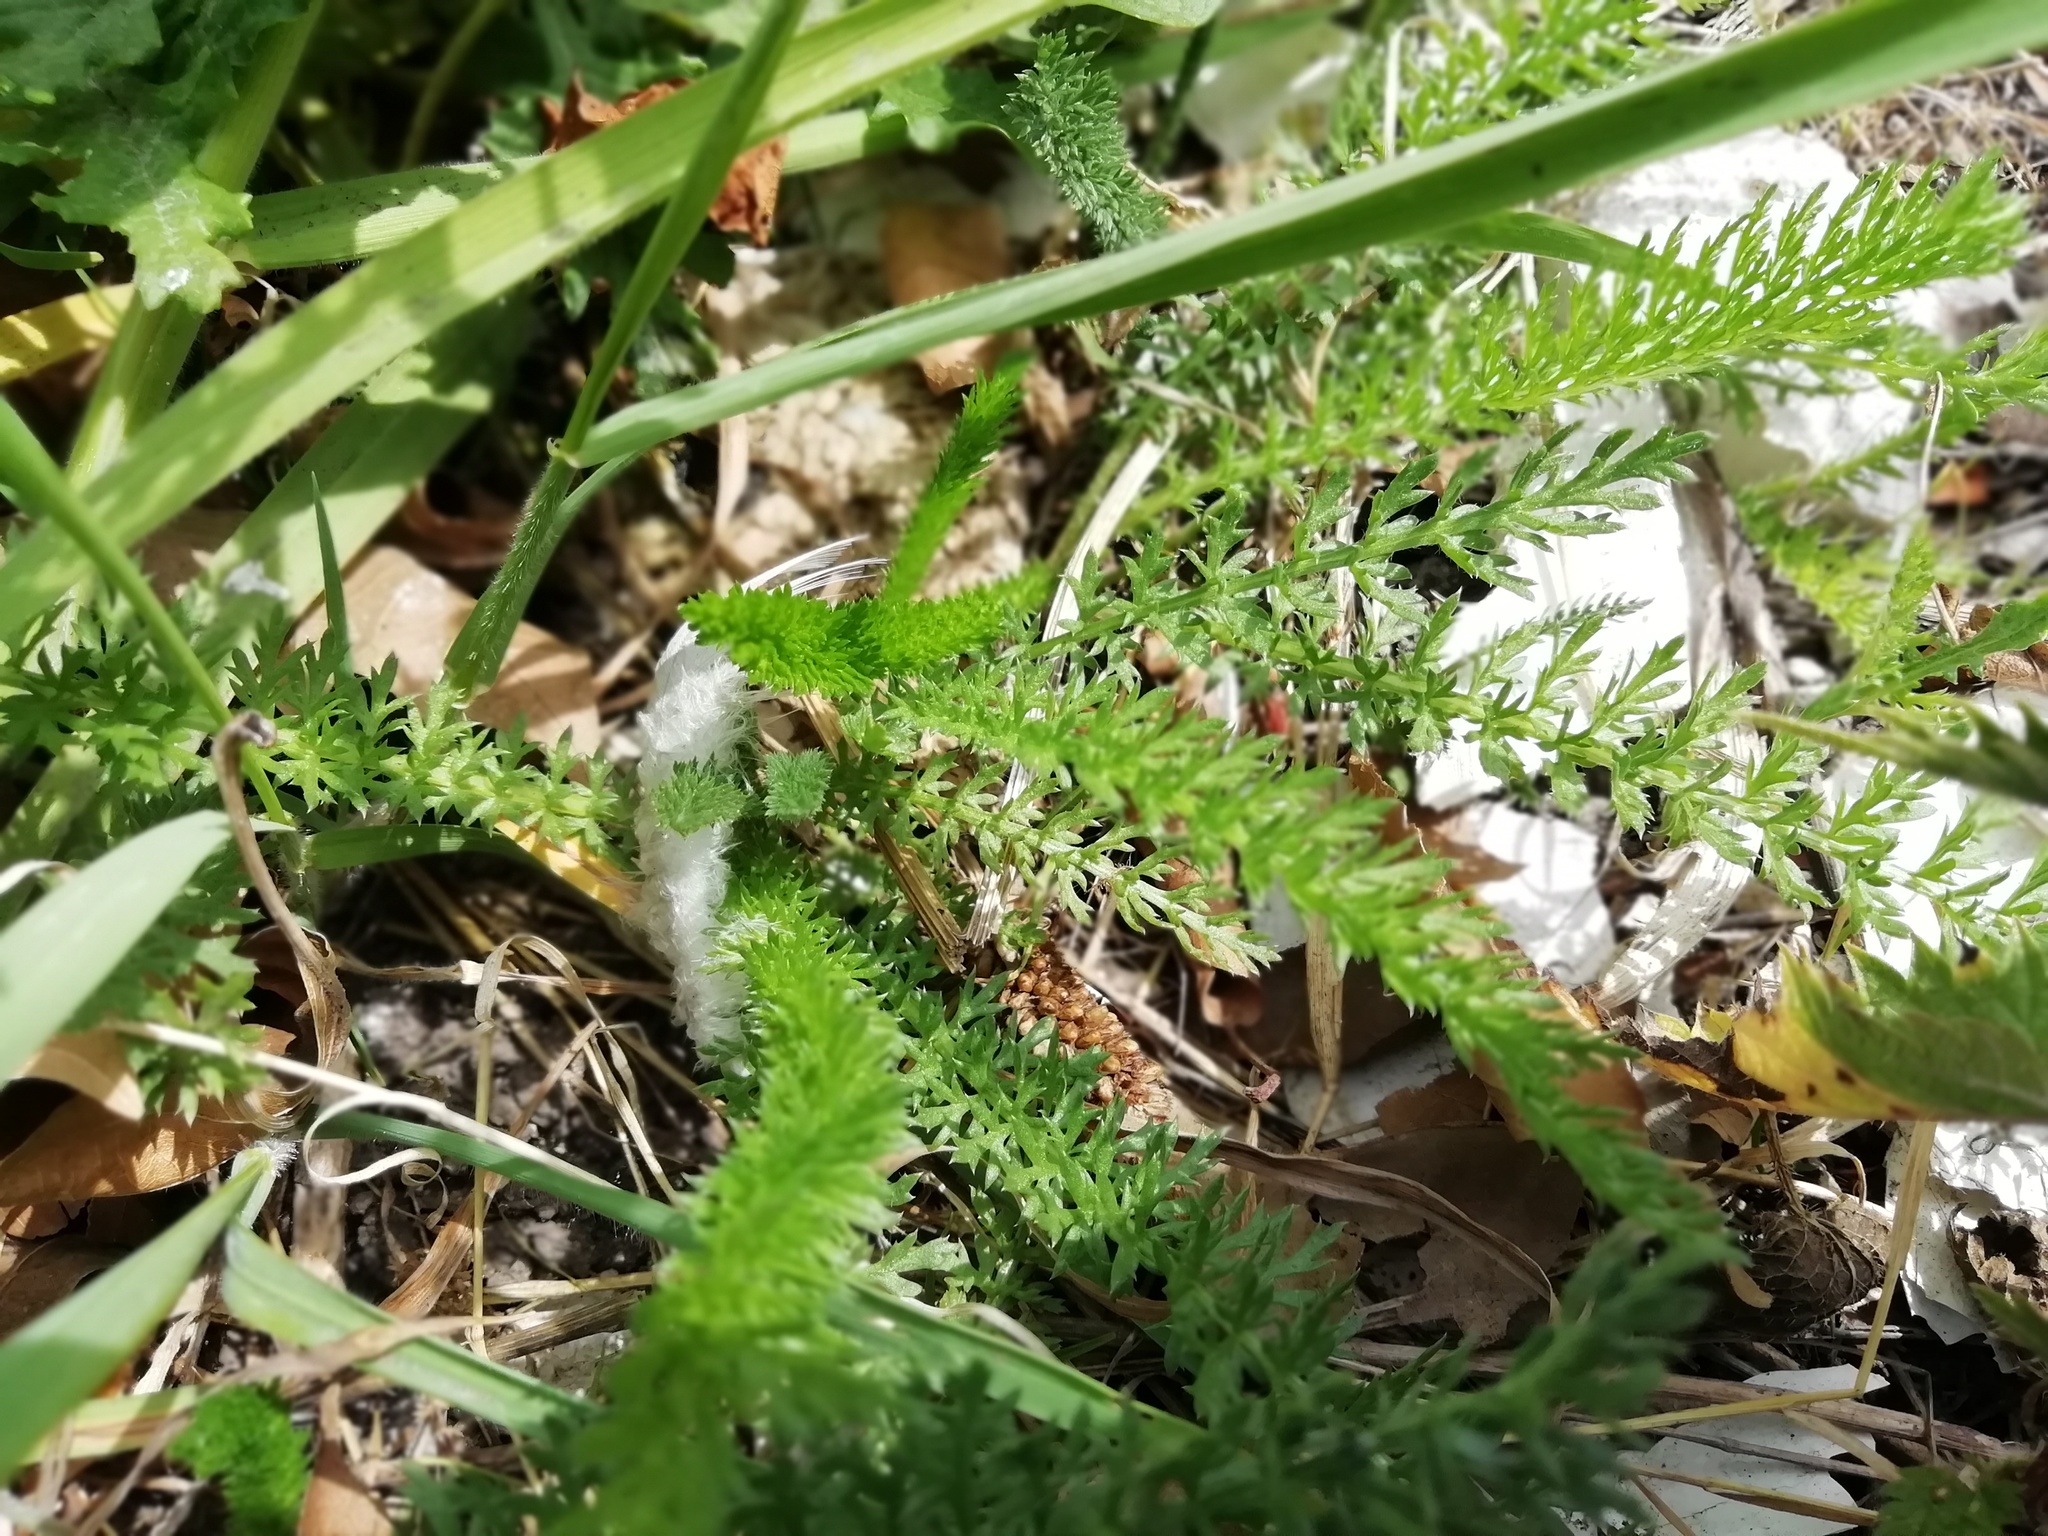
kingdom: Plantae
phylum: Tracheophyta
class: Magnoliopsida
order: Asterales
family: Asteraceae
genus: Achillea
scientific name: Achillea millefolium
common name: Yarrow
